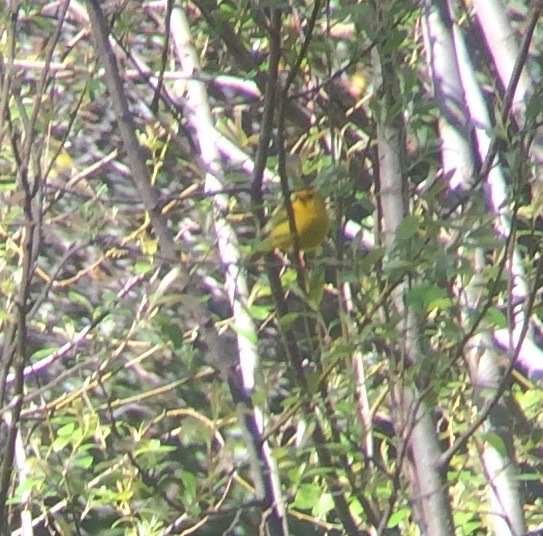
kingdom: Animalia
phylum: Chordata
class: Aves
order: Passeriformes
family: Parulidae
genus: Cardellina
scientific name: Cardellina pusilla
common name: Wilson's warbler
